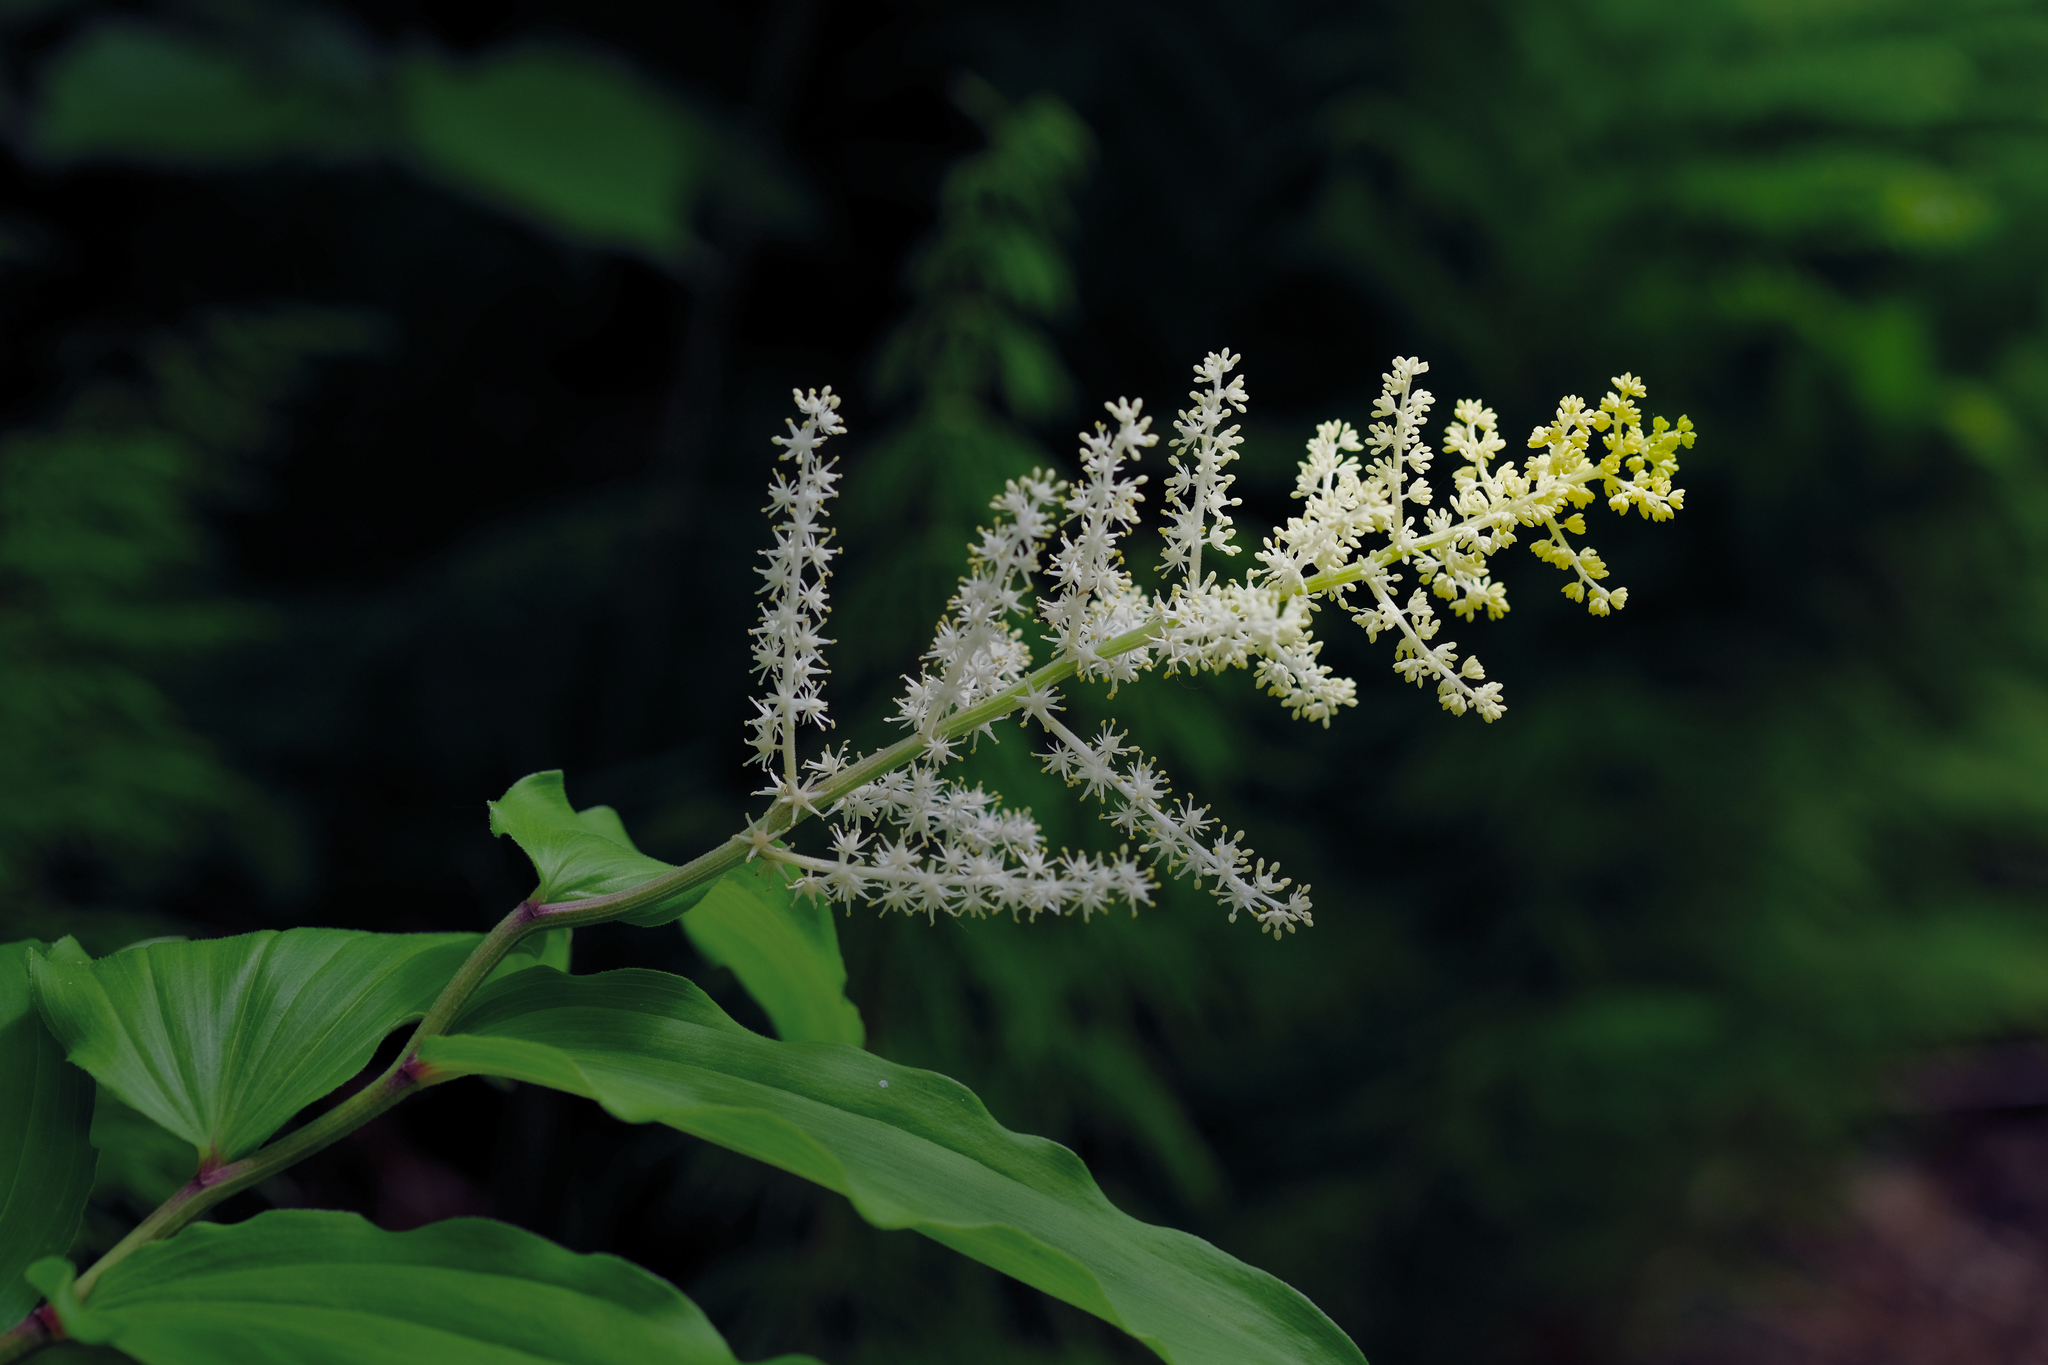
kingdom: Plantae
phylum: Tracheophyta
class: Liliopsida
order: Asparagales
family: Asparagaceae
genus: Maianthemum
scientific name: Maianthemum racemosum
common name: False spikenard
